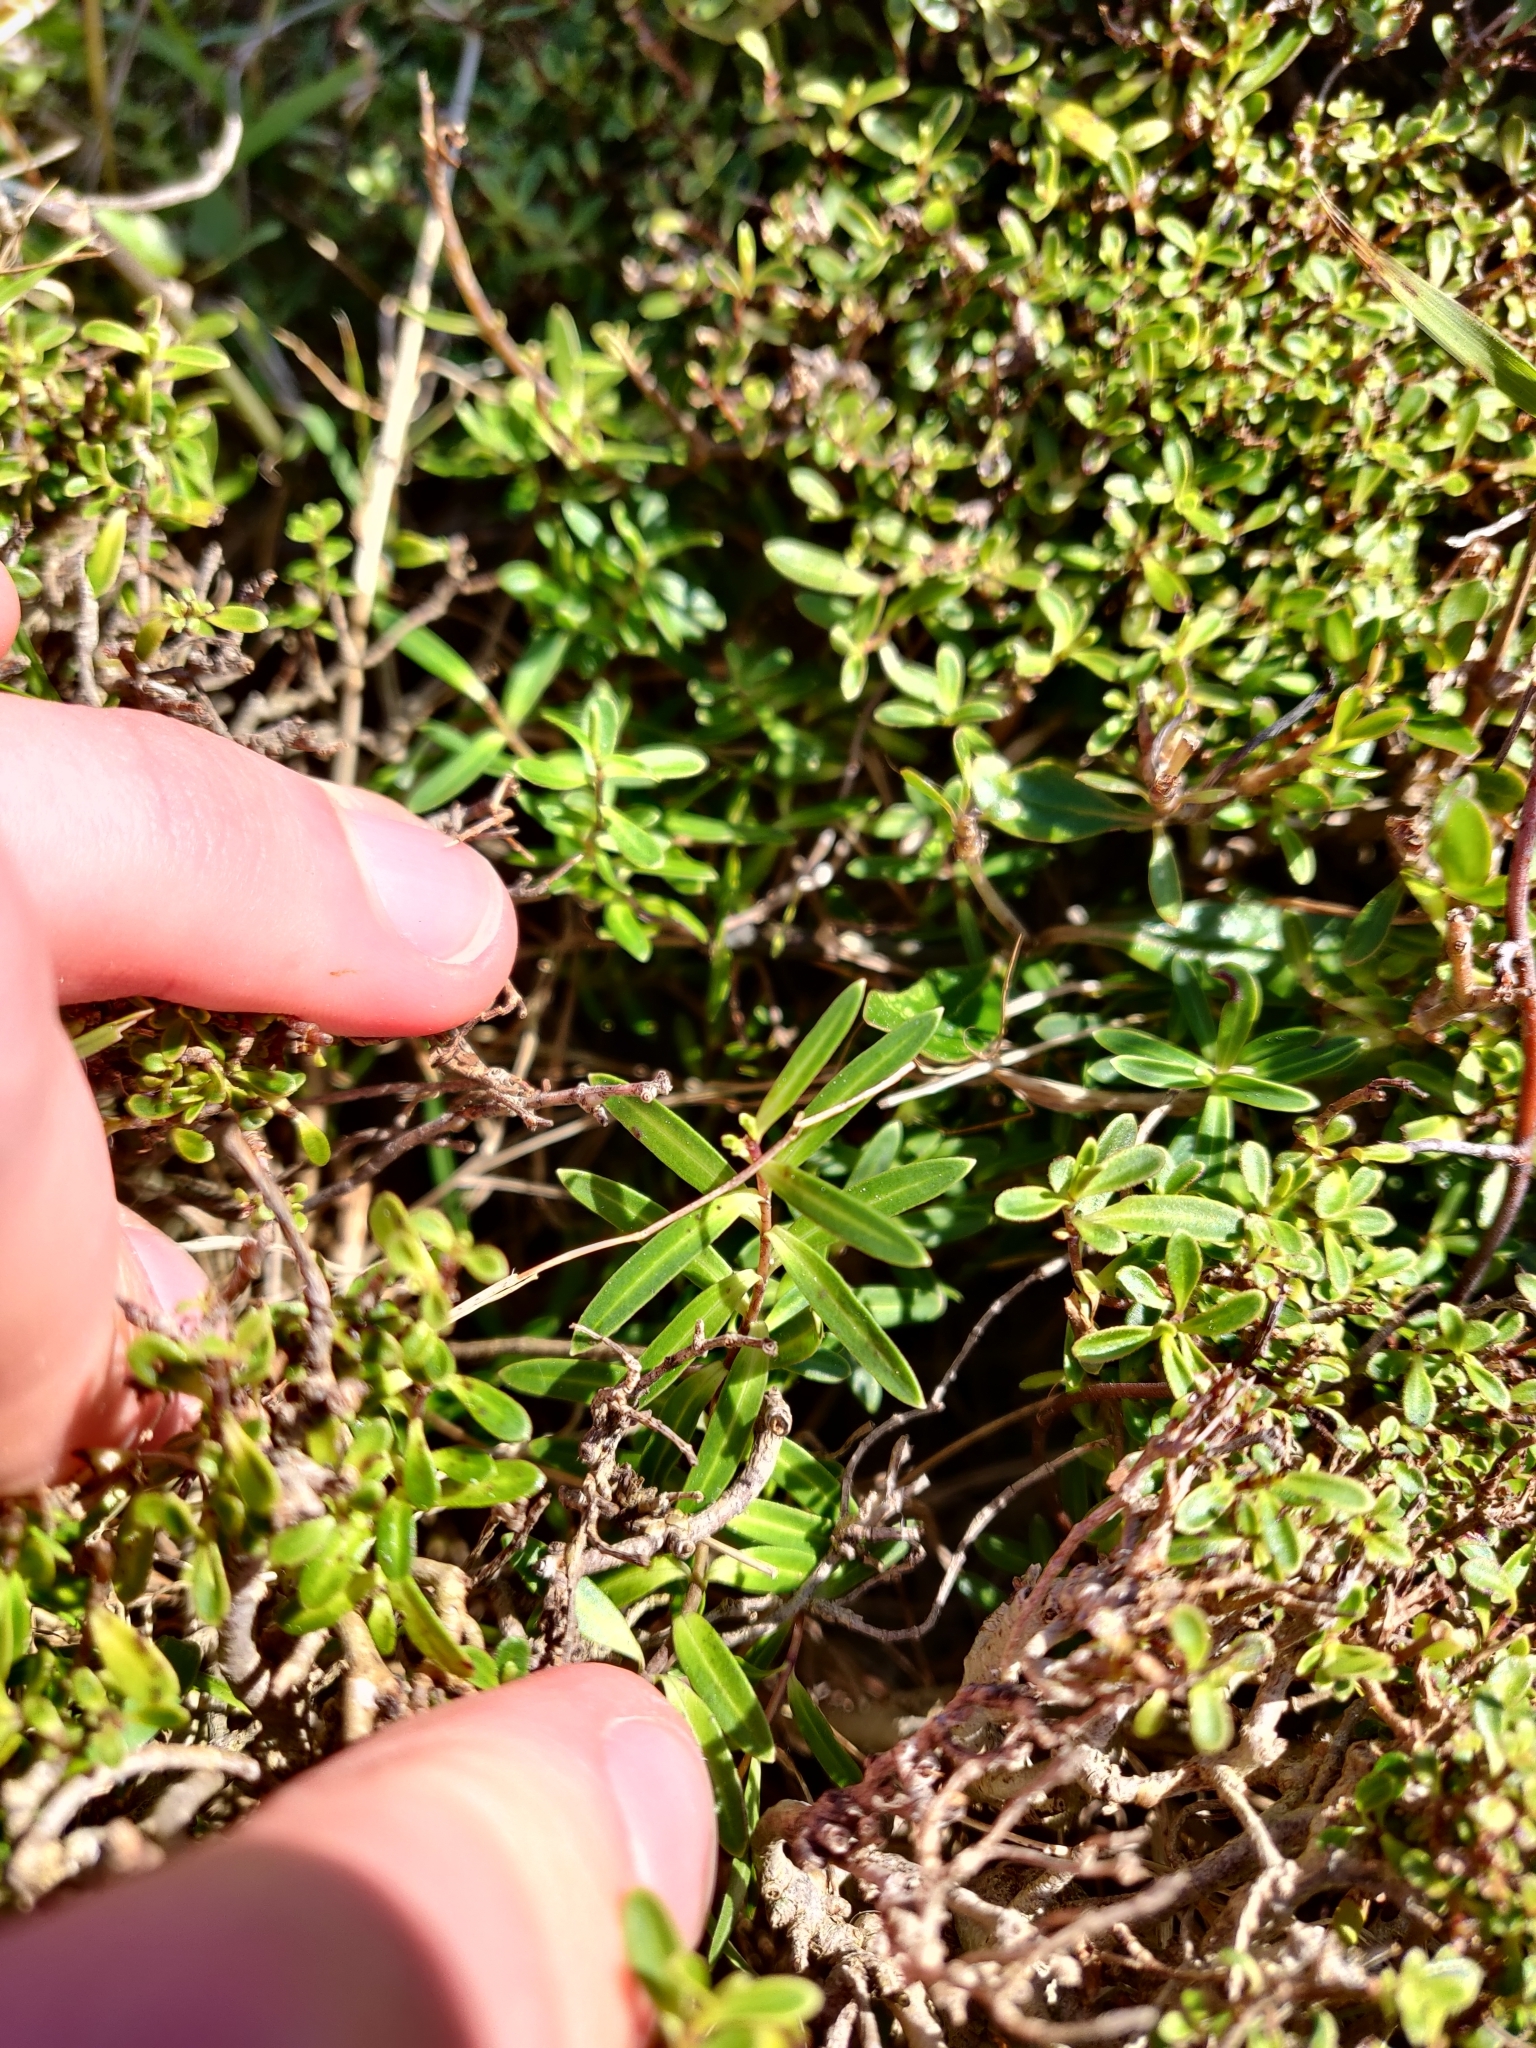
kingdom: Plantae
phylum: Tracheophyta
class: Magnoliopsida
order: Lamiales
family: Plantaginaceae
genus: Veronica
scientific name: Veronica stricta
